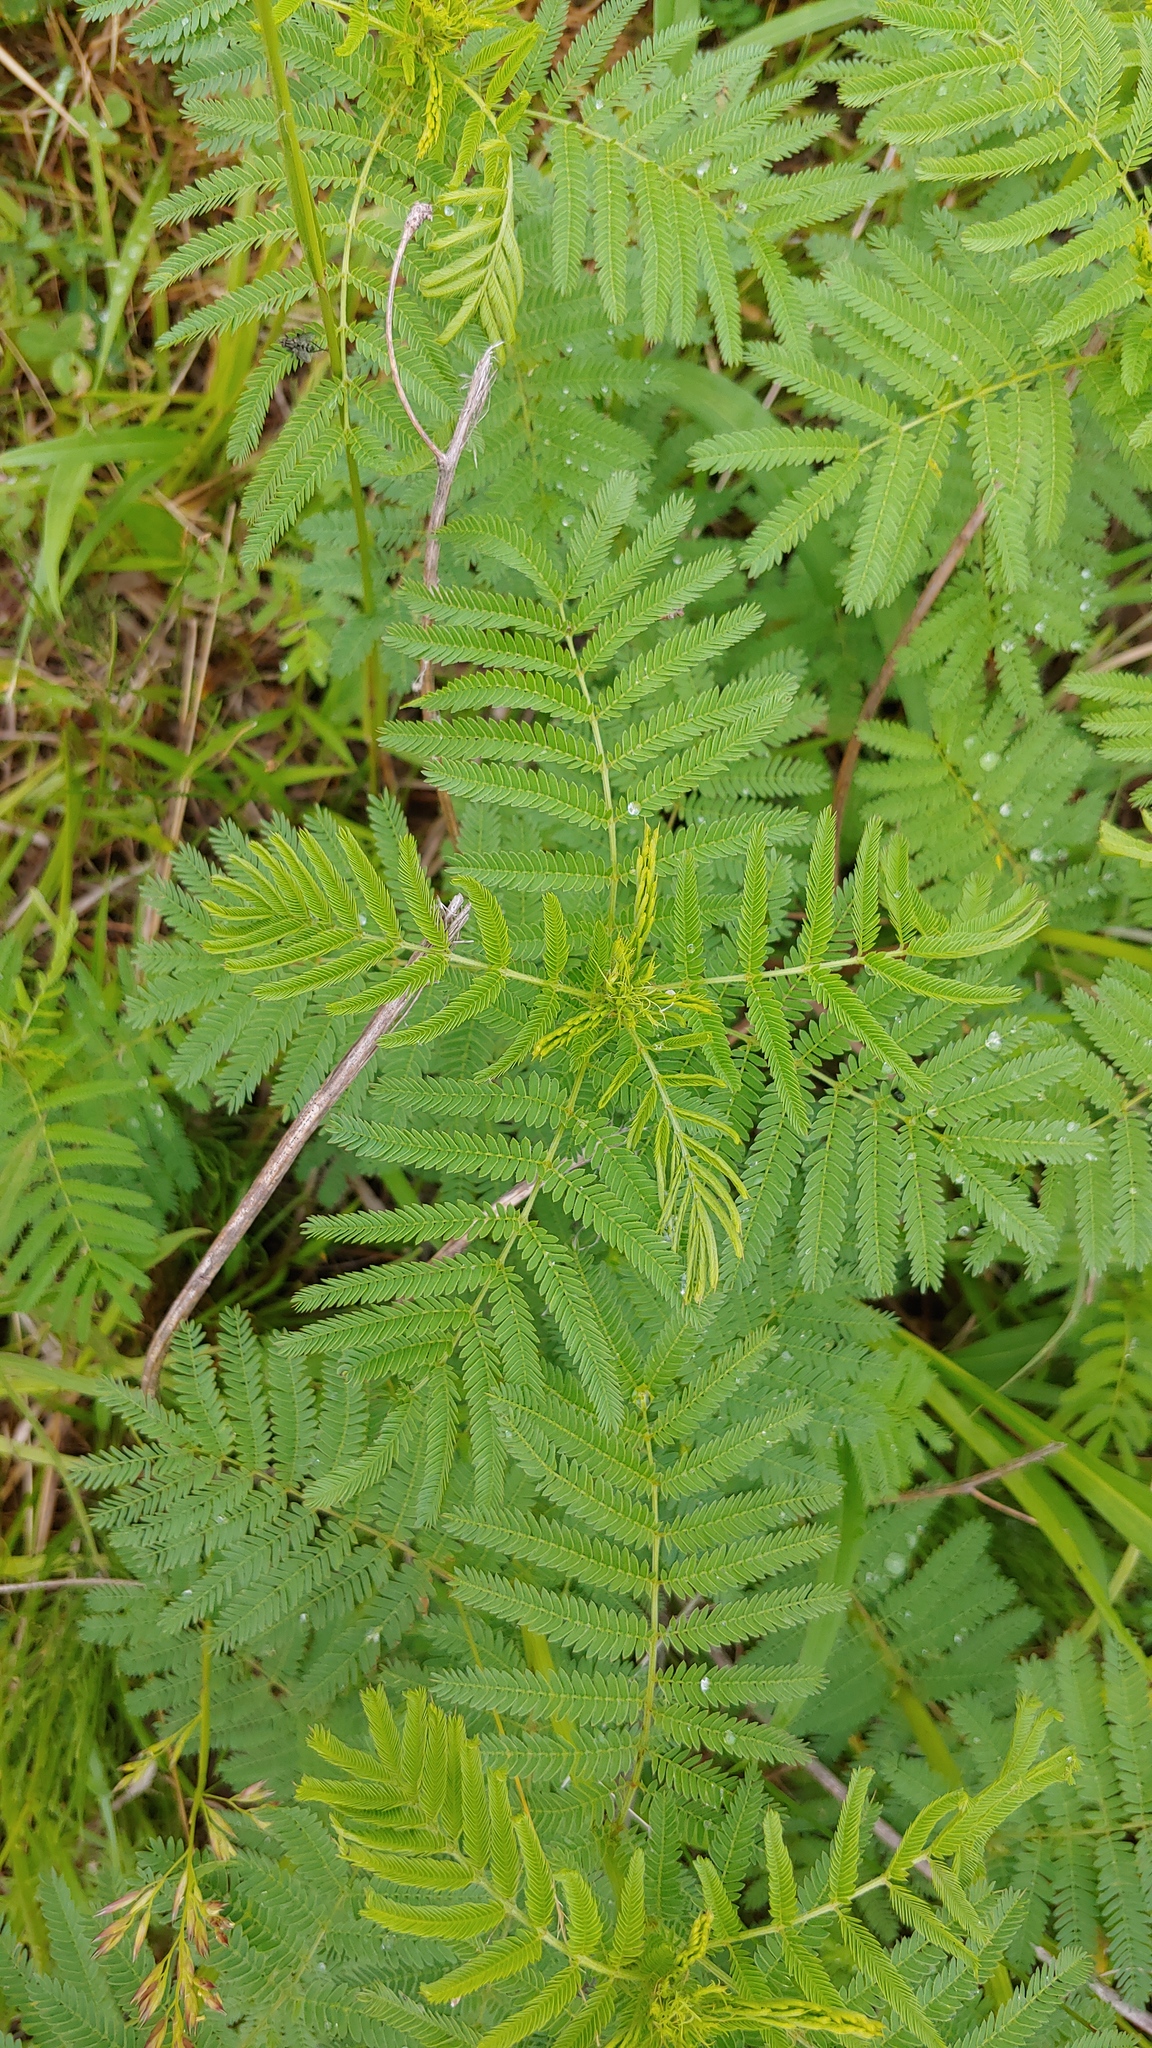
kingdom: Plantae
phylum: Tracheophyta
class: Magnoliopsida
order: Fabales
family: Fabaceae
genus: Desmanthus
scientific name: Desmanthus illinoensis
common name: Illinois bundle-flower
